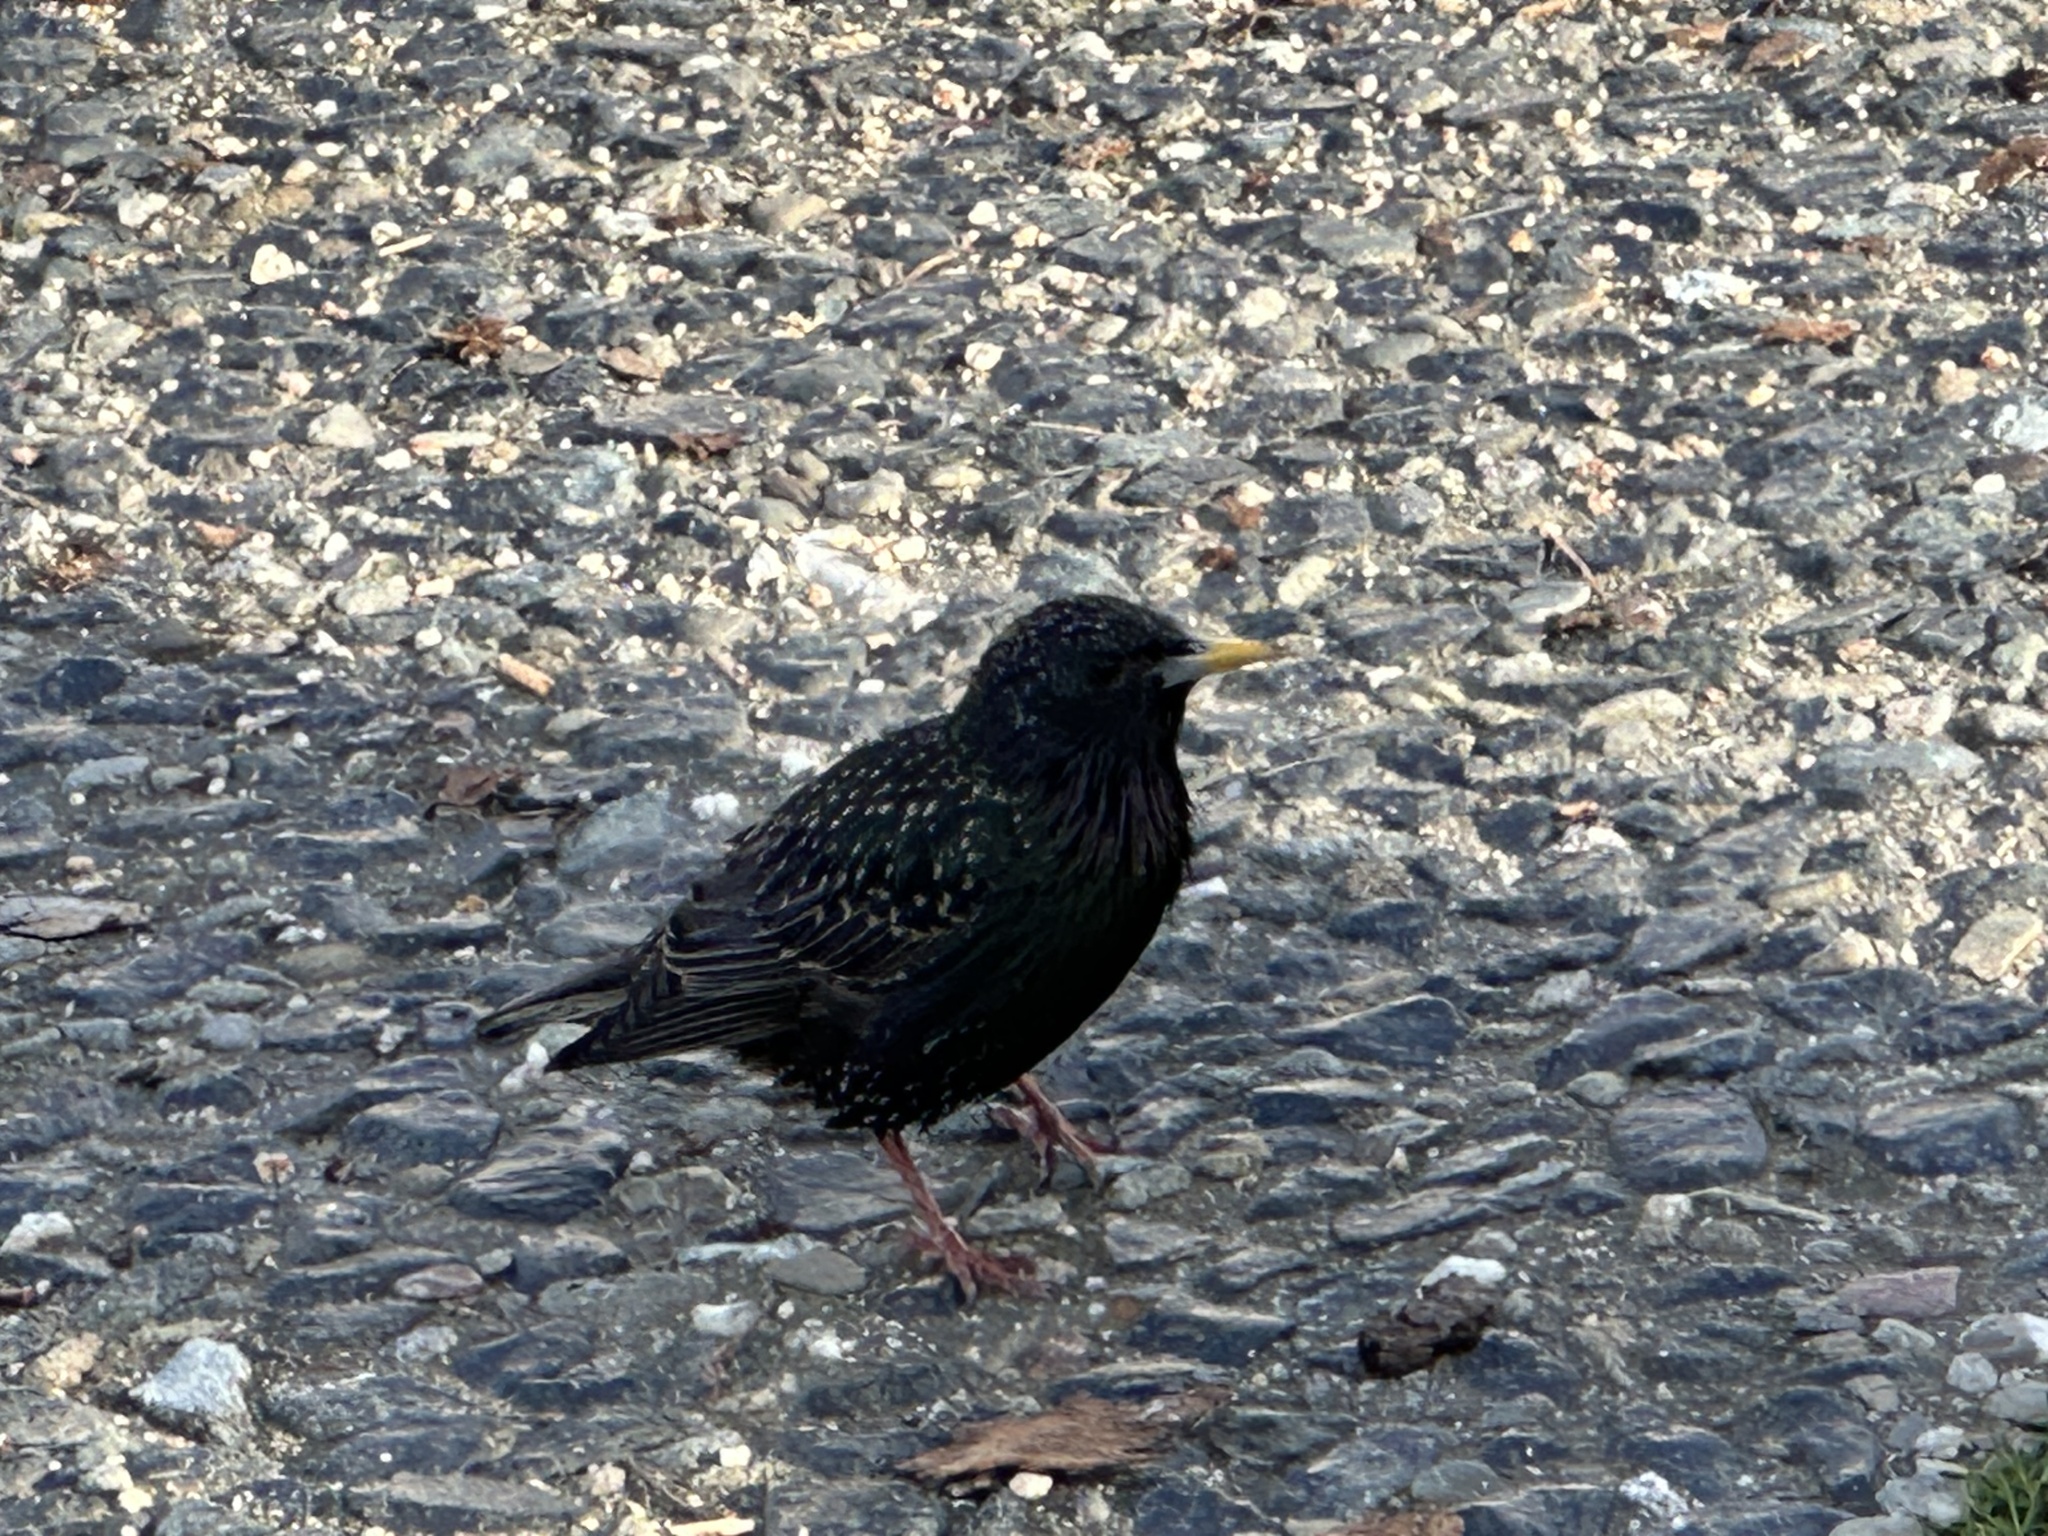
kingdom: Animalia
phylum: Chordata
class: Aves
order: Passeriformes
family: Sturnidae
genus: Sturnus
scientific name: Sturnus vulgaris
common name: Common starling
